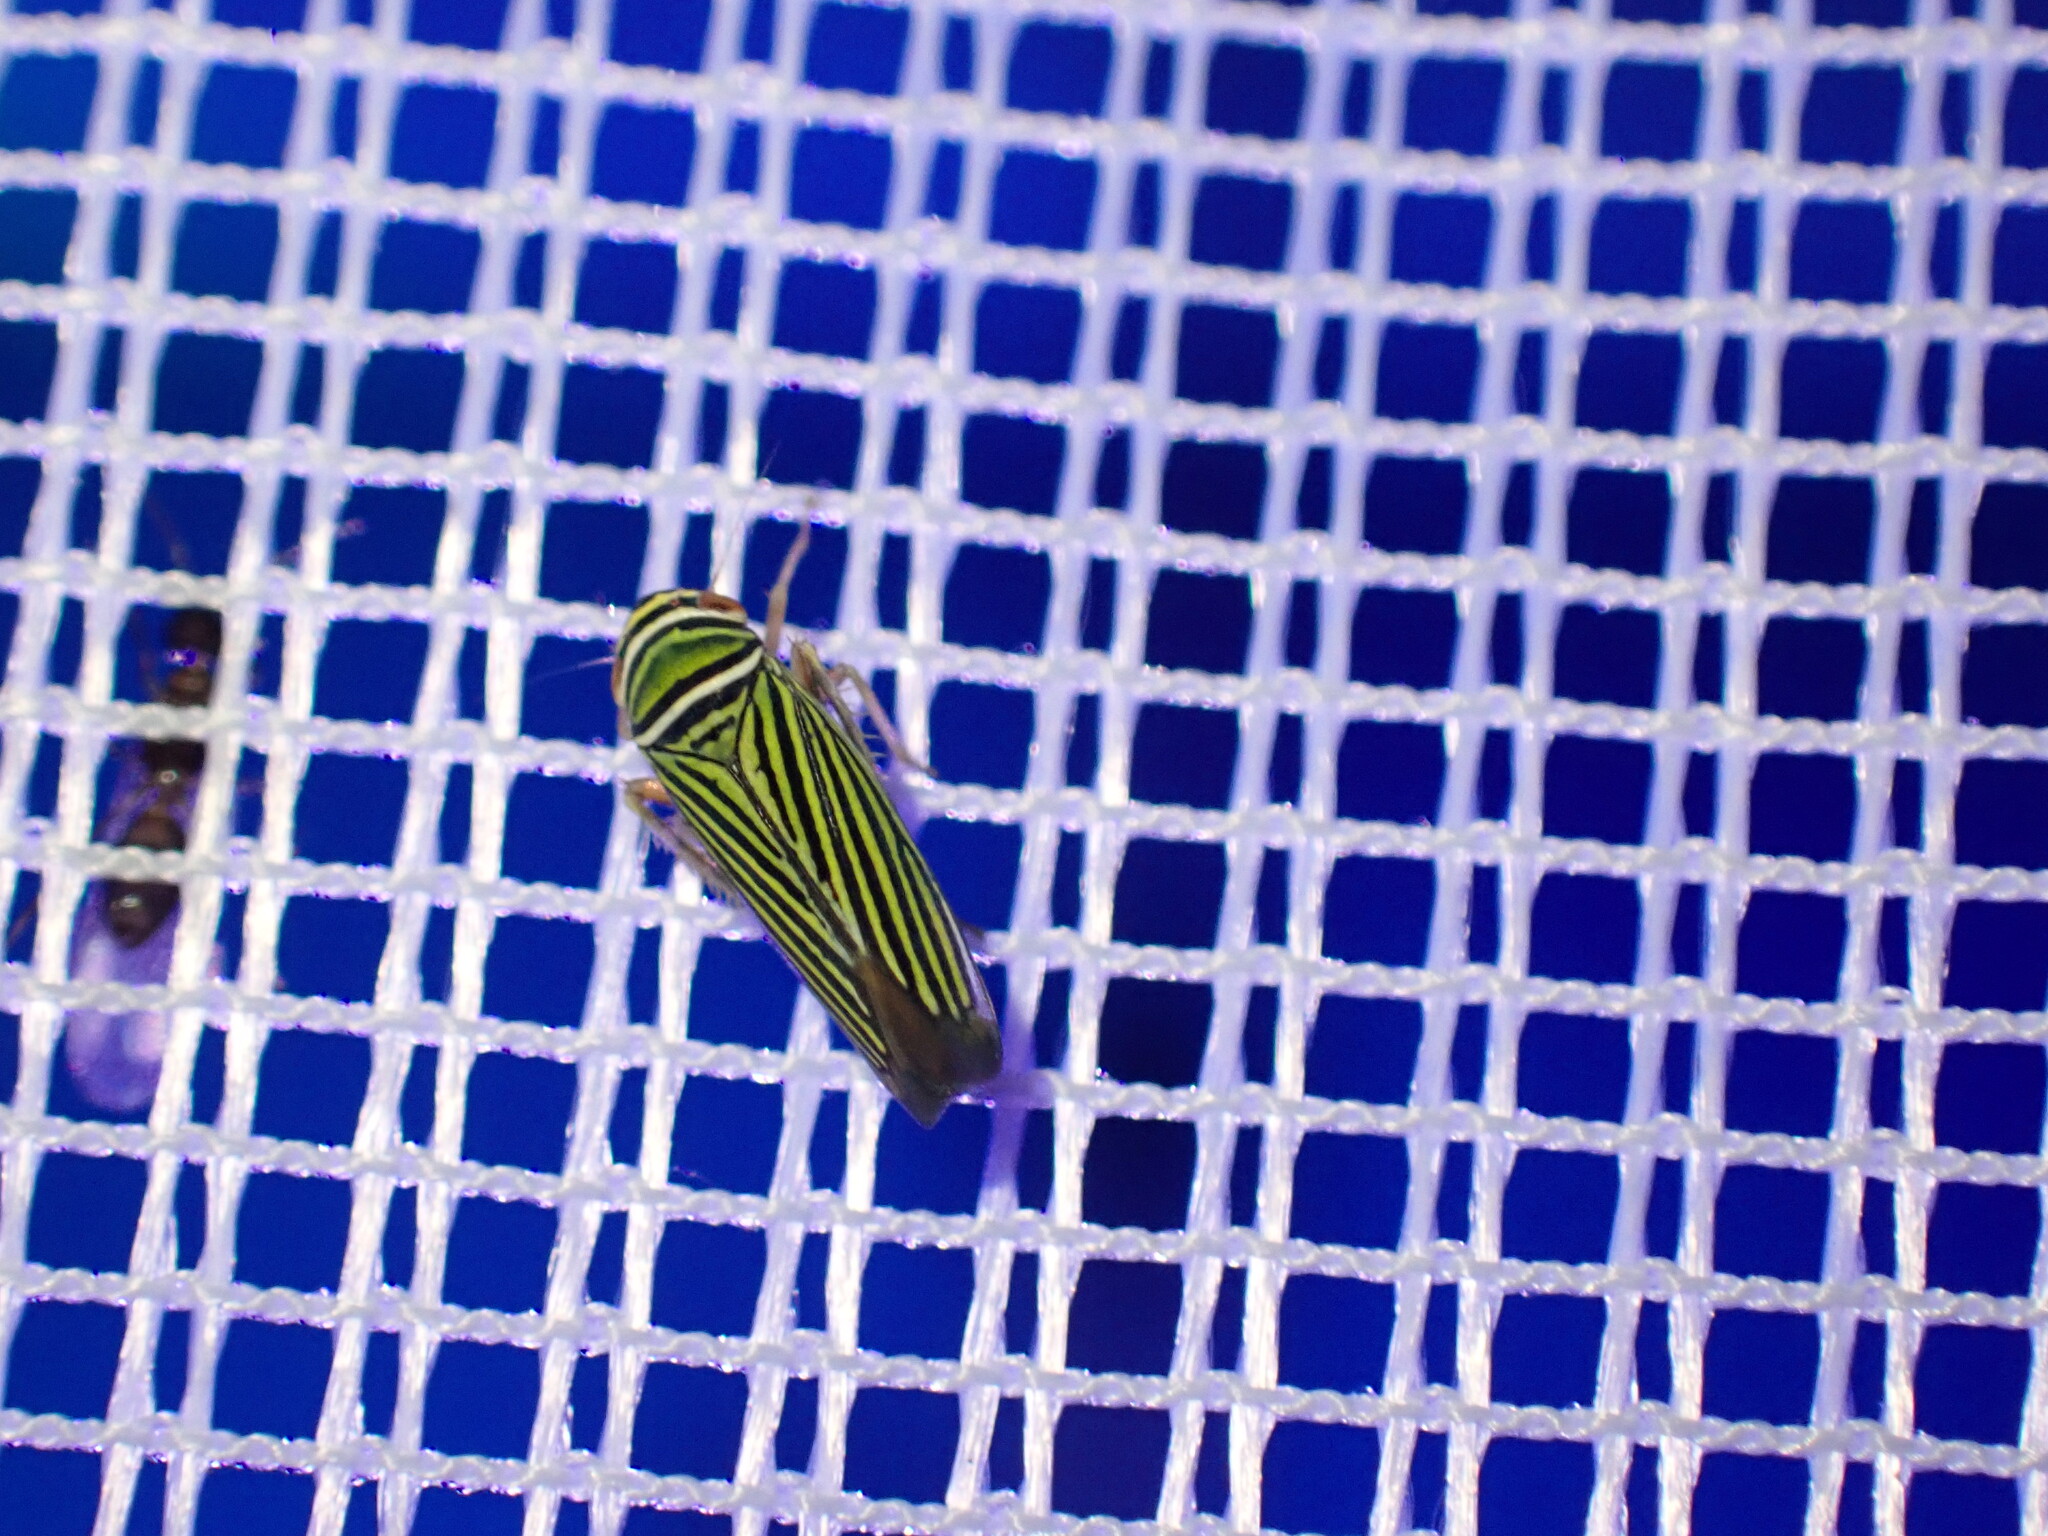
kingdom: Animalia
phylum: Arthropoda
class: Insecta
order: Hemiptera
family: Cicadellidae
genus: Tylozygus
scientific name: Tylozygus bifidus
